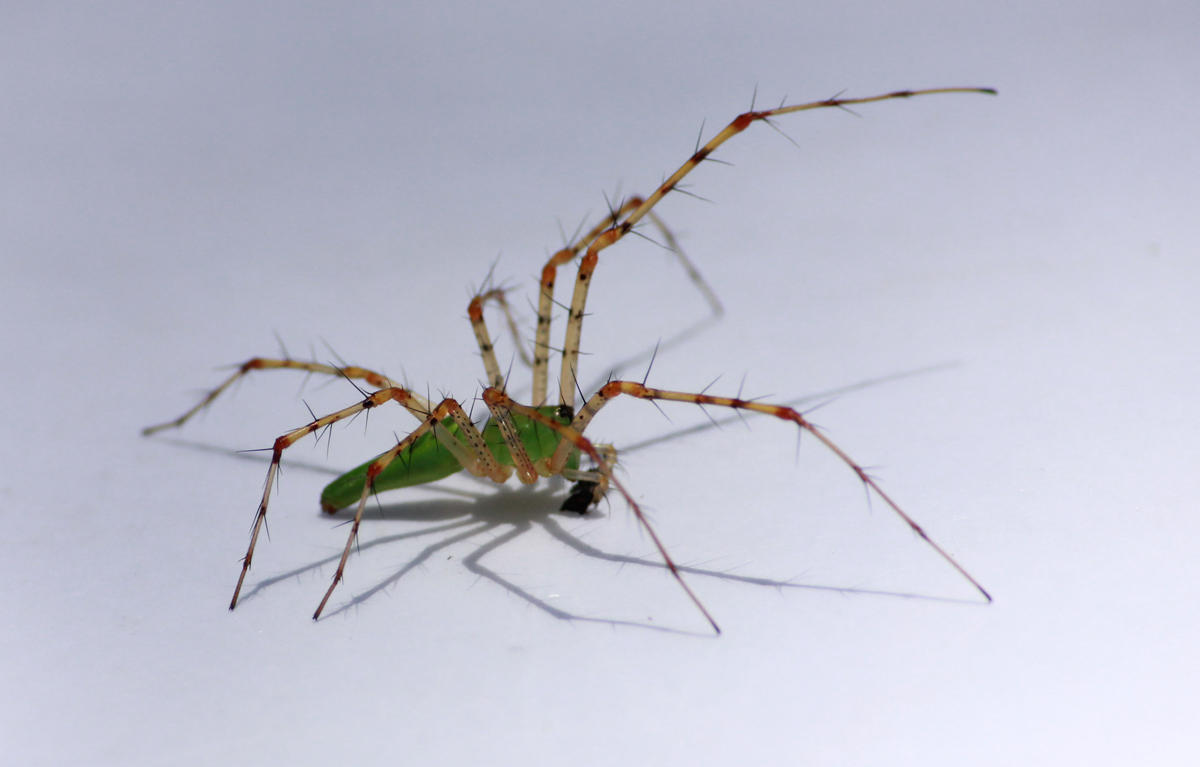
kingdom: Animalia
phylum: Arthropoda
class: Arachnida
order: Araneae
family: Oxyopidae
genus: Peucetia
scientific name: Peucetia pulchra
